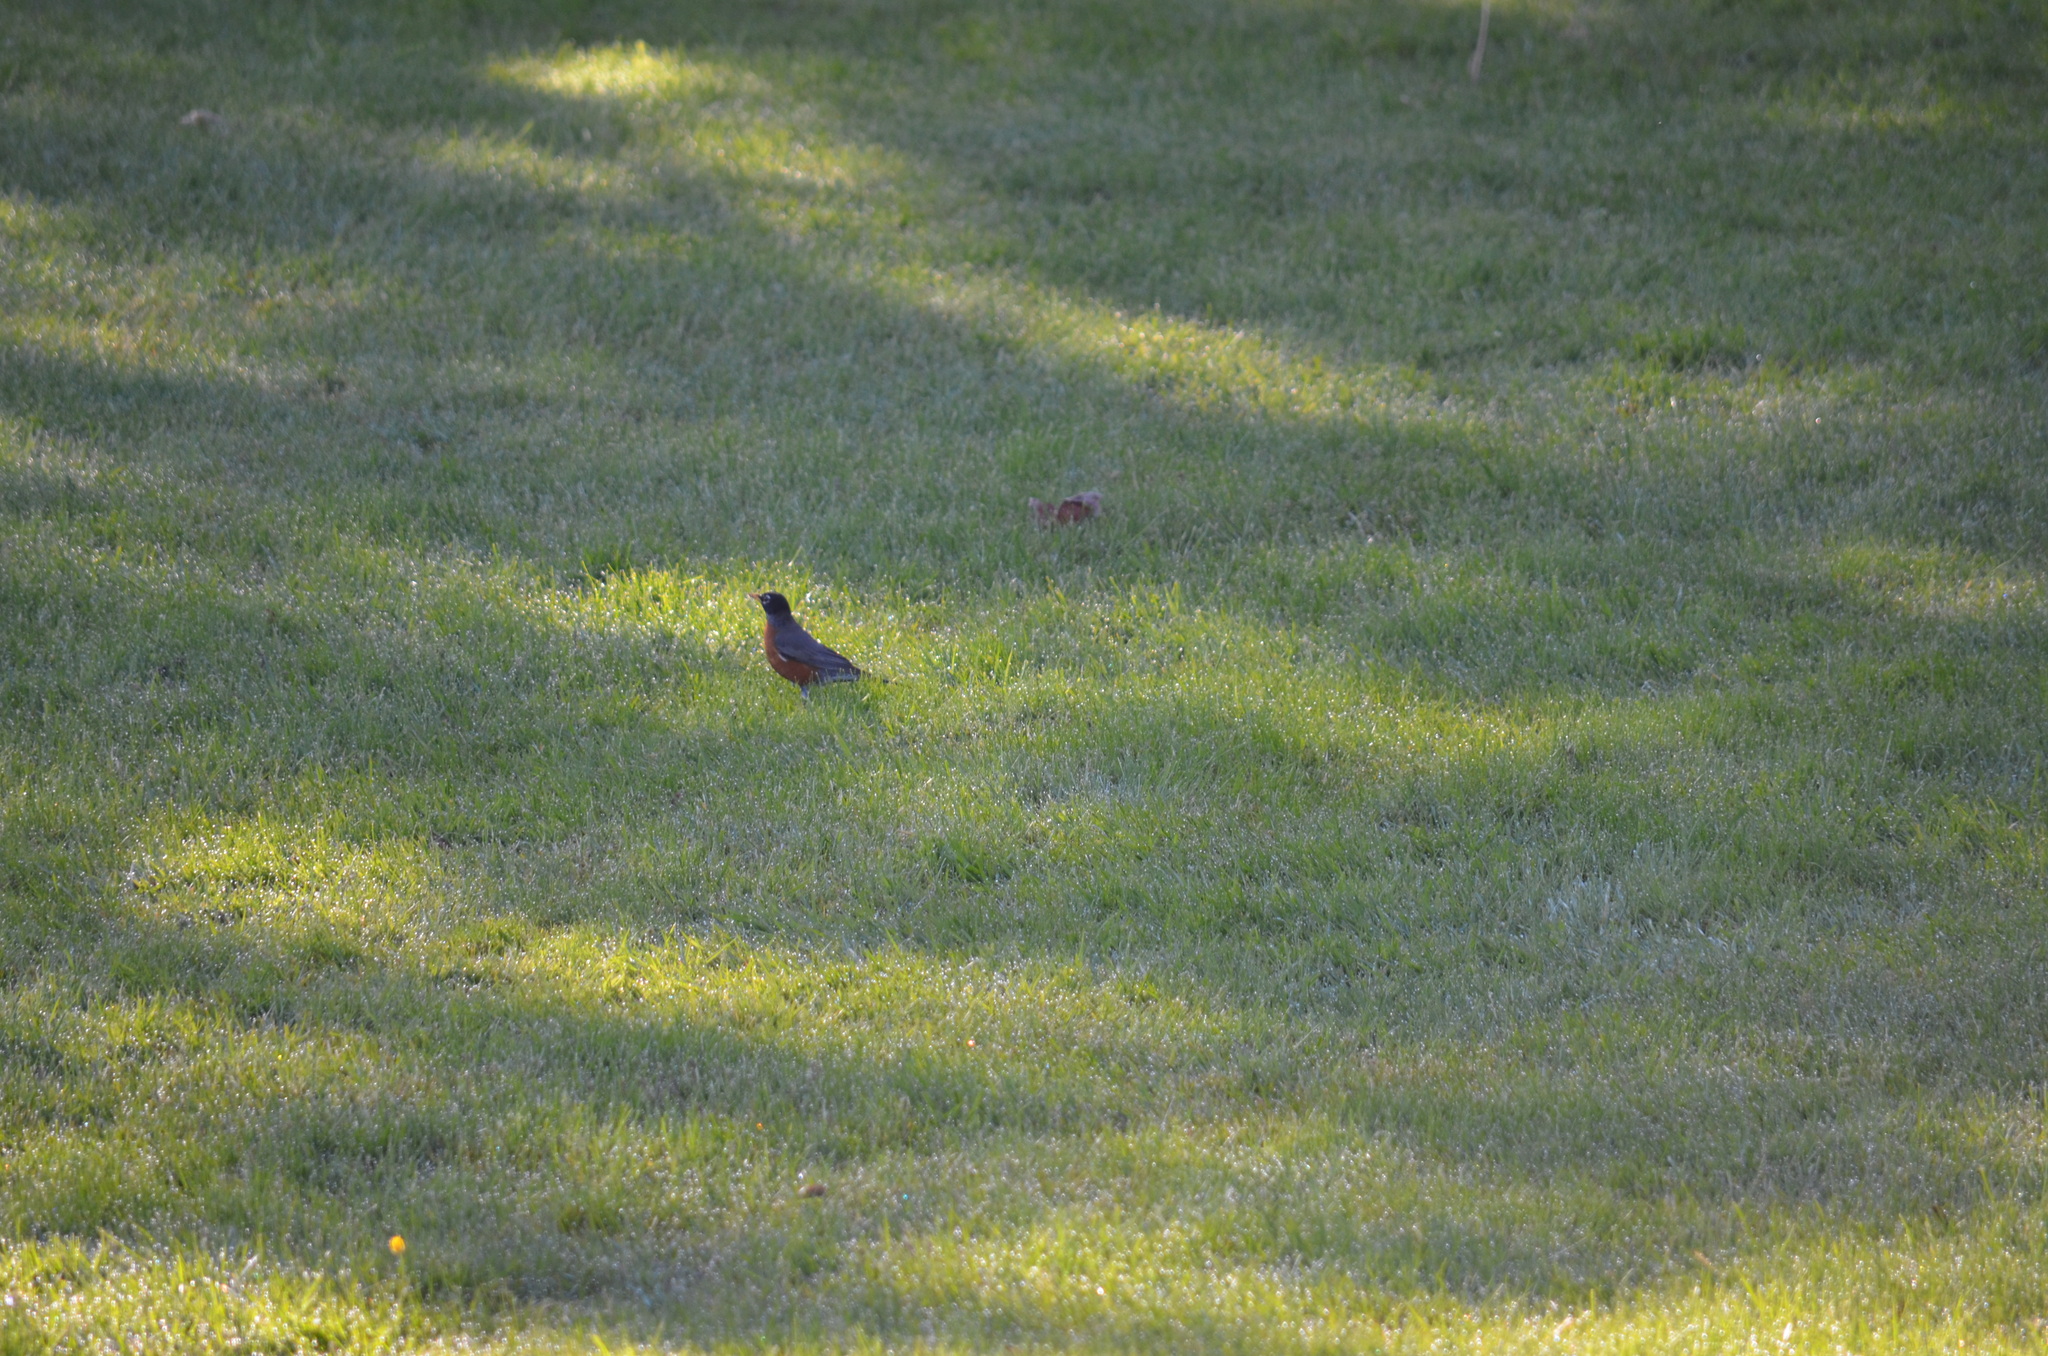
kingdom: Animalia
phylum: Chordata
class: Aves
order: Passeriformes
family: Turdidae
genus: Turdus
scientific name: Turdus migratorius
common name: American robin
